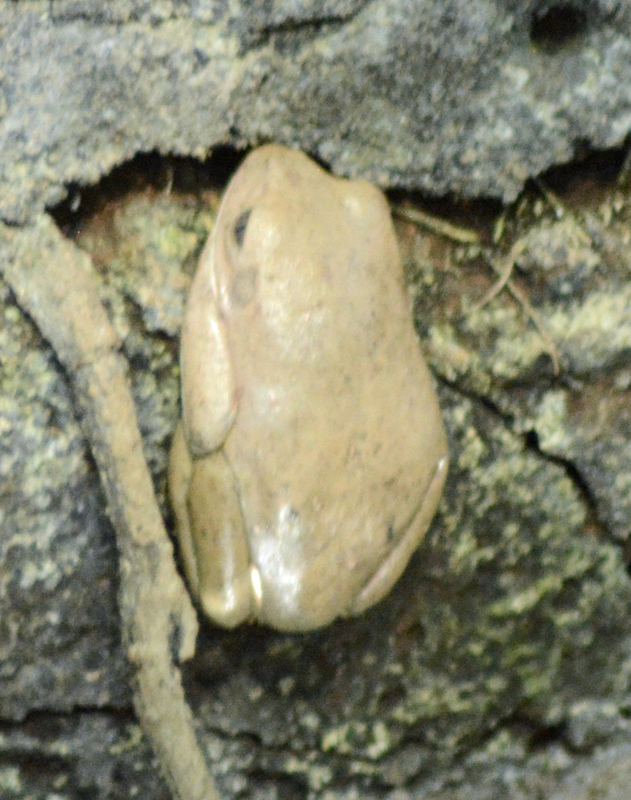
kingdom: Animalia
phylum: Chordata
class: Amphibia
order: Anura
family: Phyllomedusidae
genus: Agalychnis
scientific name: Agalychnis dacnicolor
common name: Mexican giant tree frog
